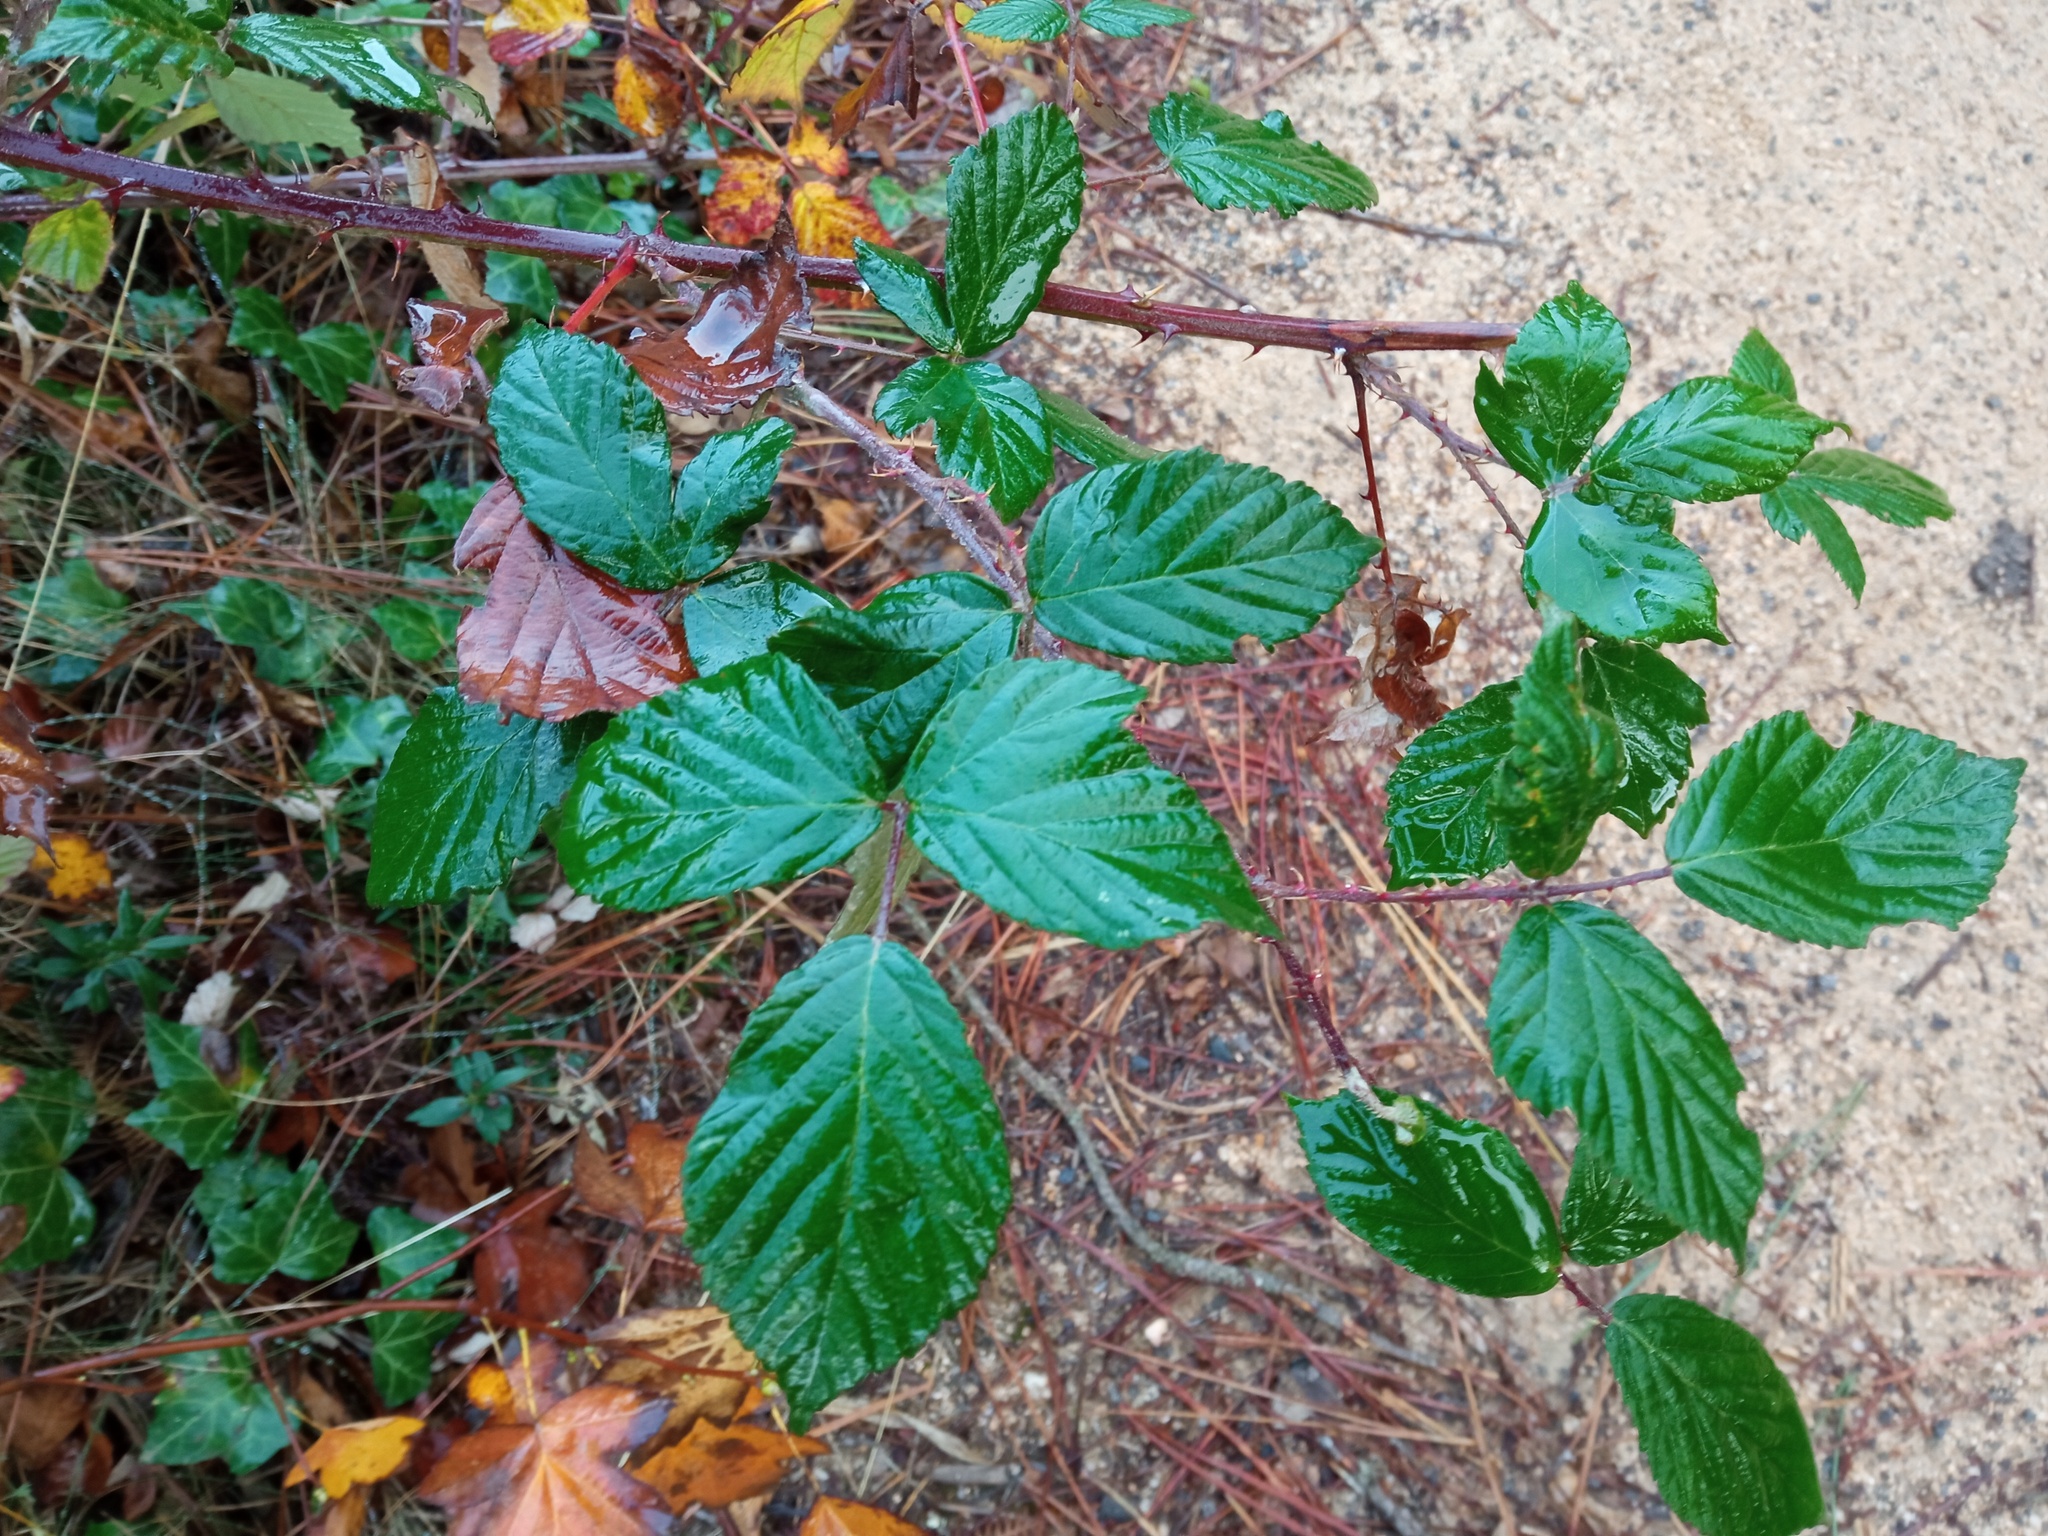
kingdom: Plantae
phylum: Tracheophyta
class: Magnoliopsida
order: Rosales
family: Rosaceae
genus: Rubus
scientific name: Rubus ulmifolius
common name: Elmleaf blackberry
